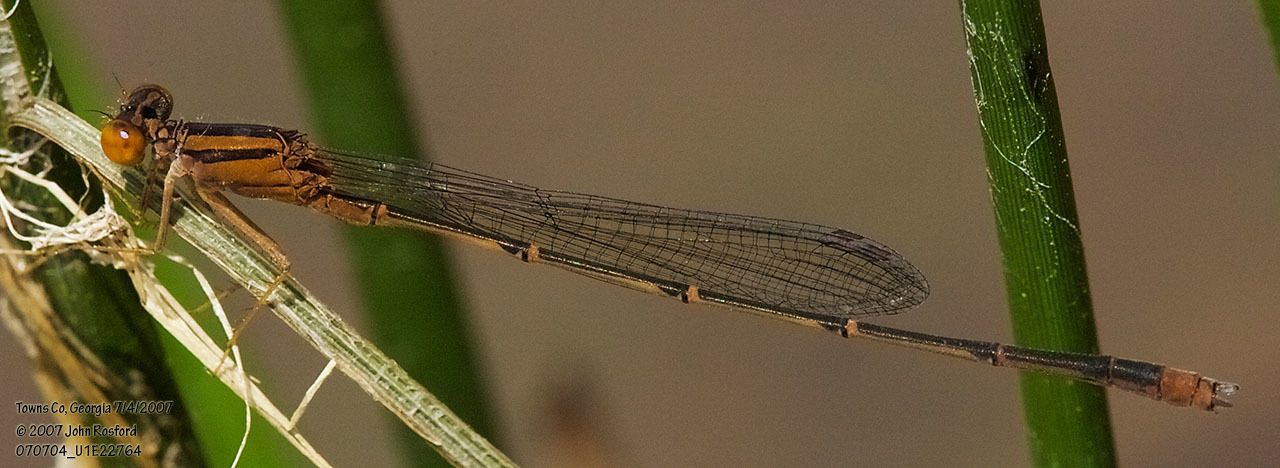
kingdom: Animalia
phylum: Arthropoda
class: Insecta
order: Odonata
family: Coenagrionidae
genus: Enallagma
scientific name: Enallagma signatum
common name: Orange bluet
